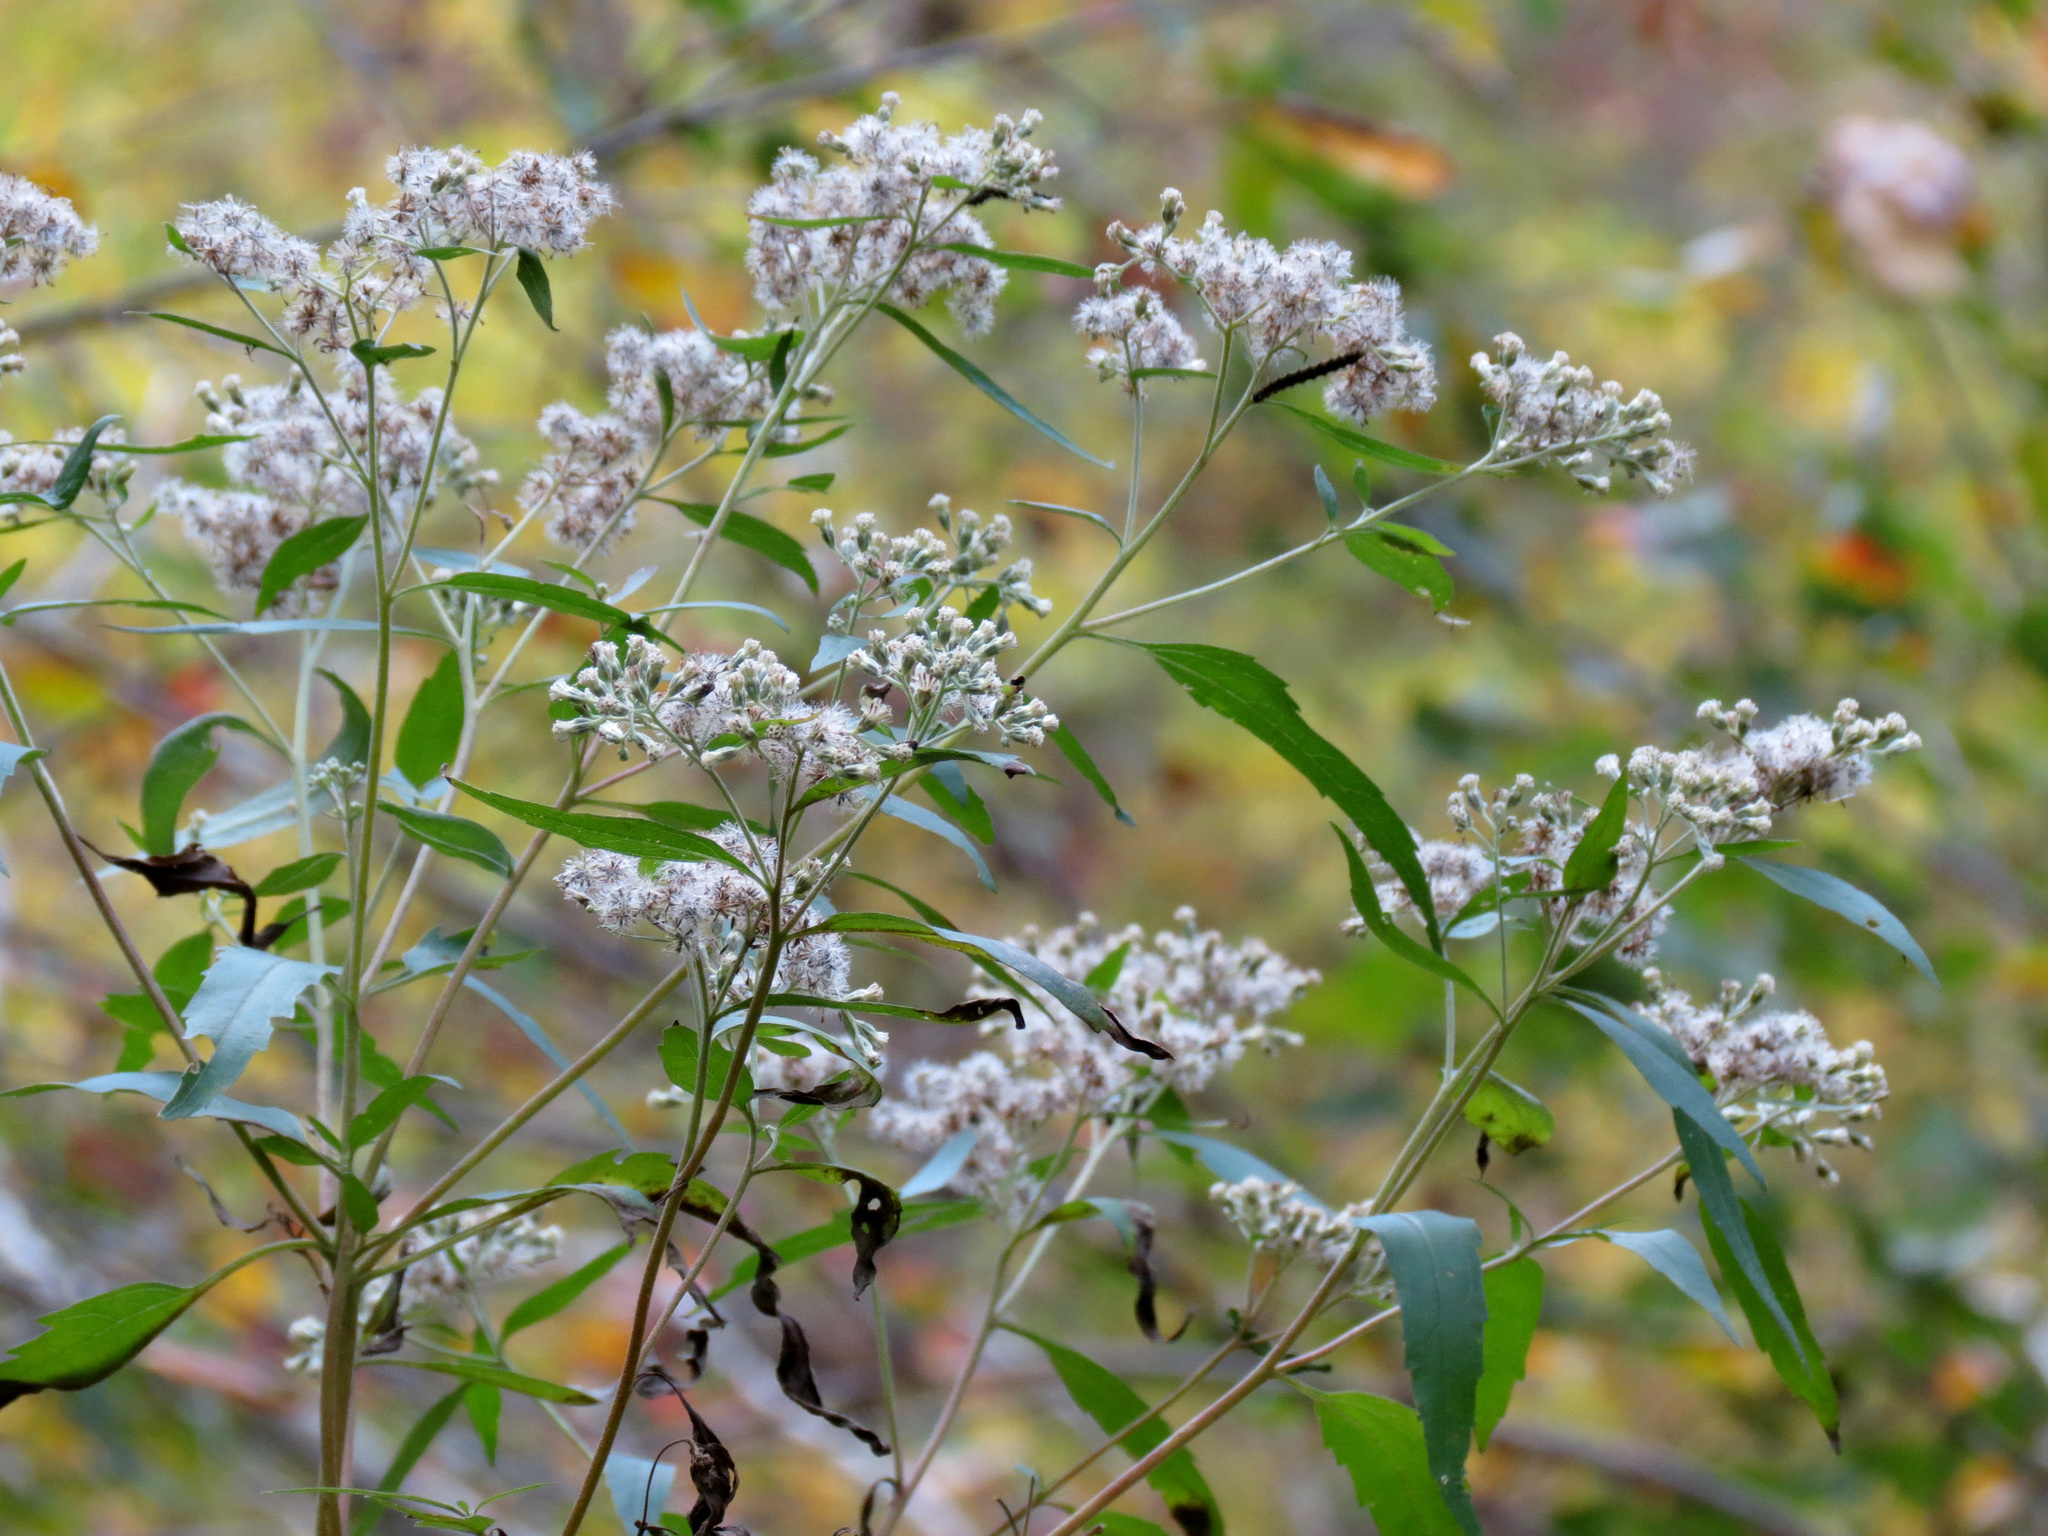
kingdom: Plantae
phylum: Tracheophyta
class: Magnoliopsida
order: Asterales
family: Asteraceae
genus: Eupatorium
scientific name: Eupatorium serotinum
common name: Late boneset
